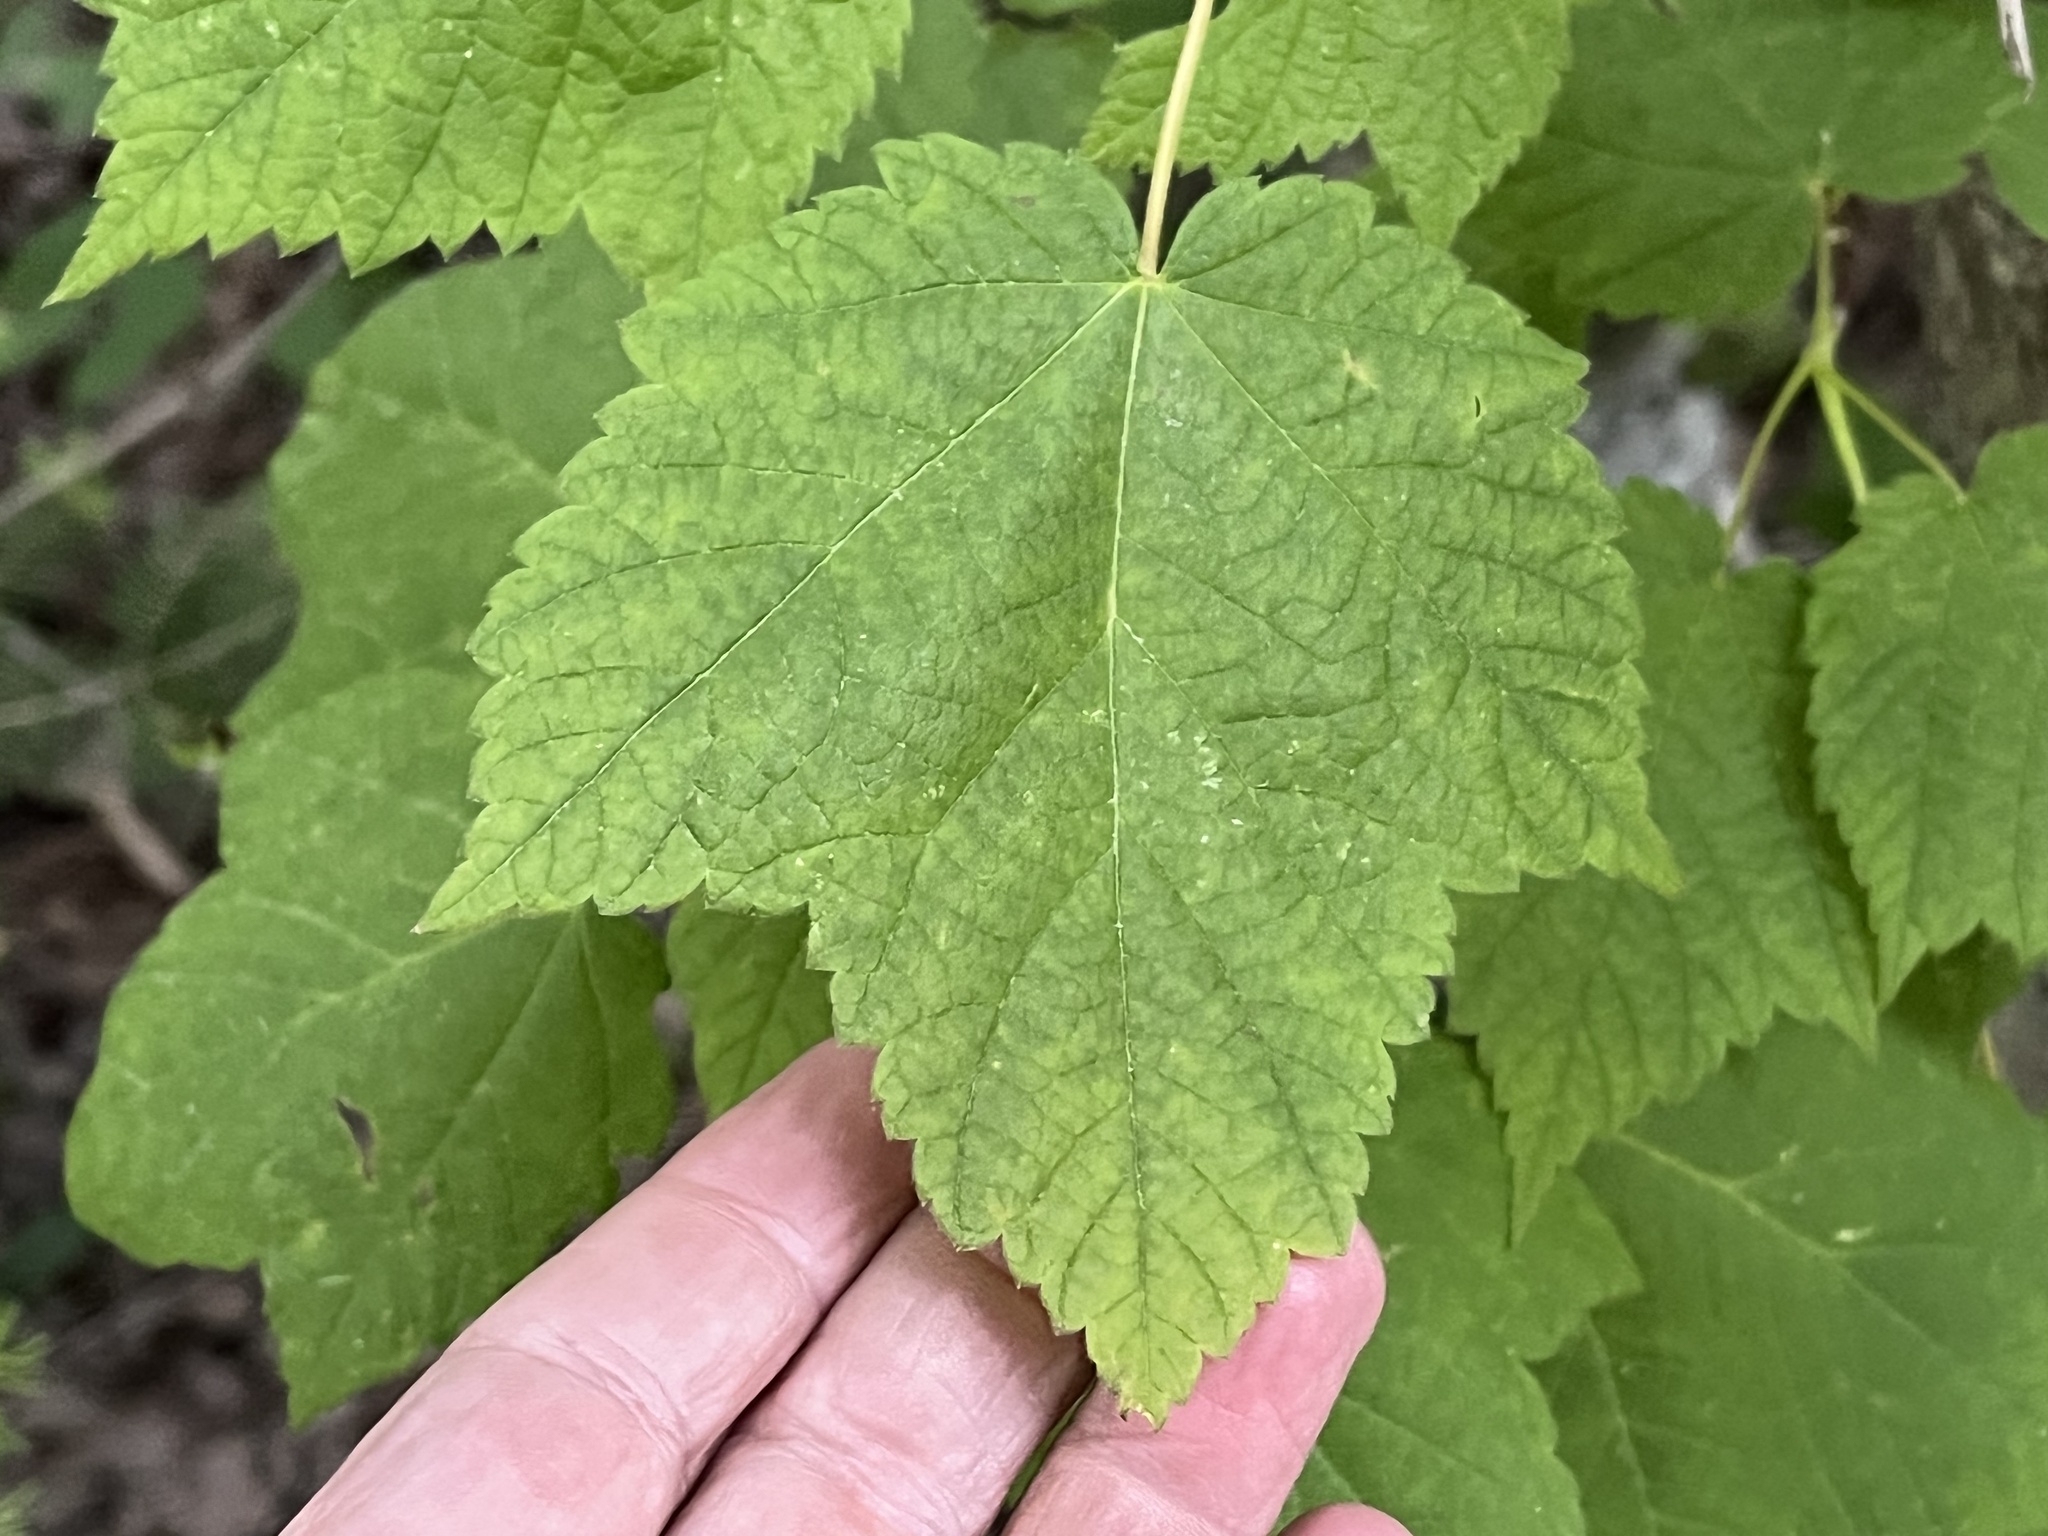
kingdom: Plantae
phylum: Tracheophyta
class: Magnoliopsida
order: Sapindales
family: Sapindaceae
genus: Acer
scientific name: Acer spicatum
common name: Mountain maple
